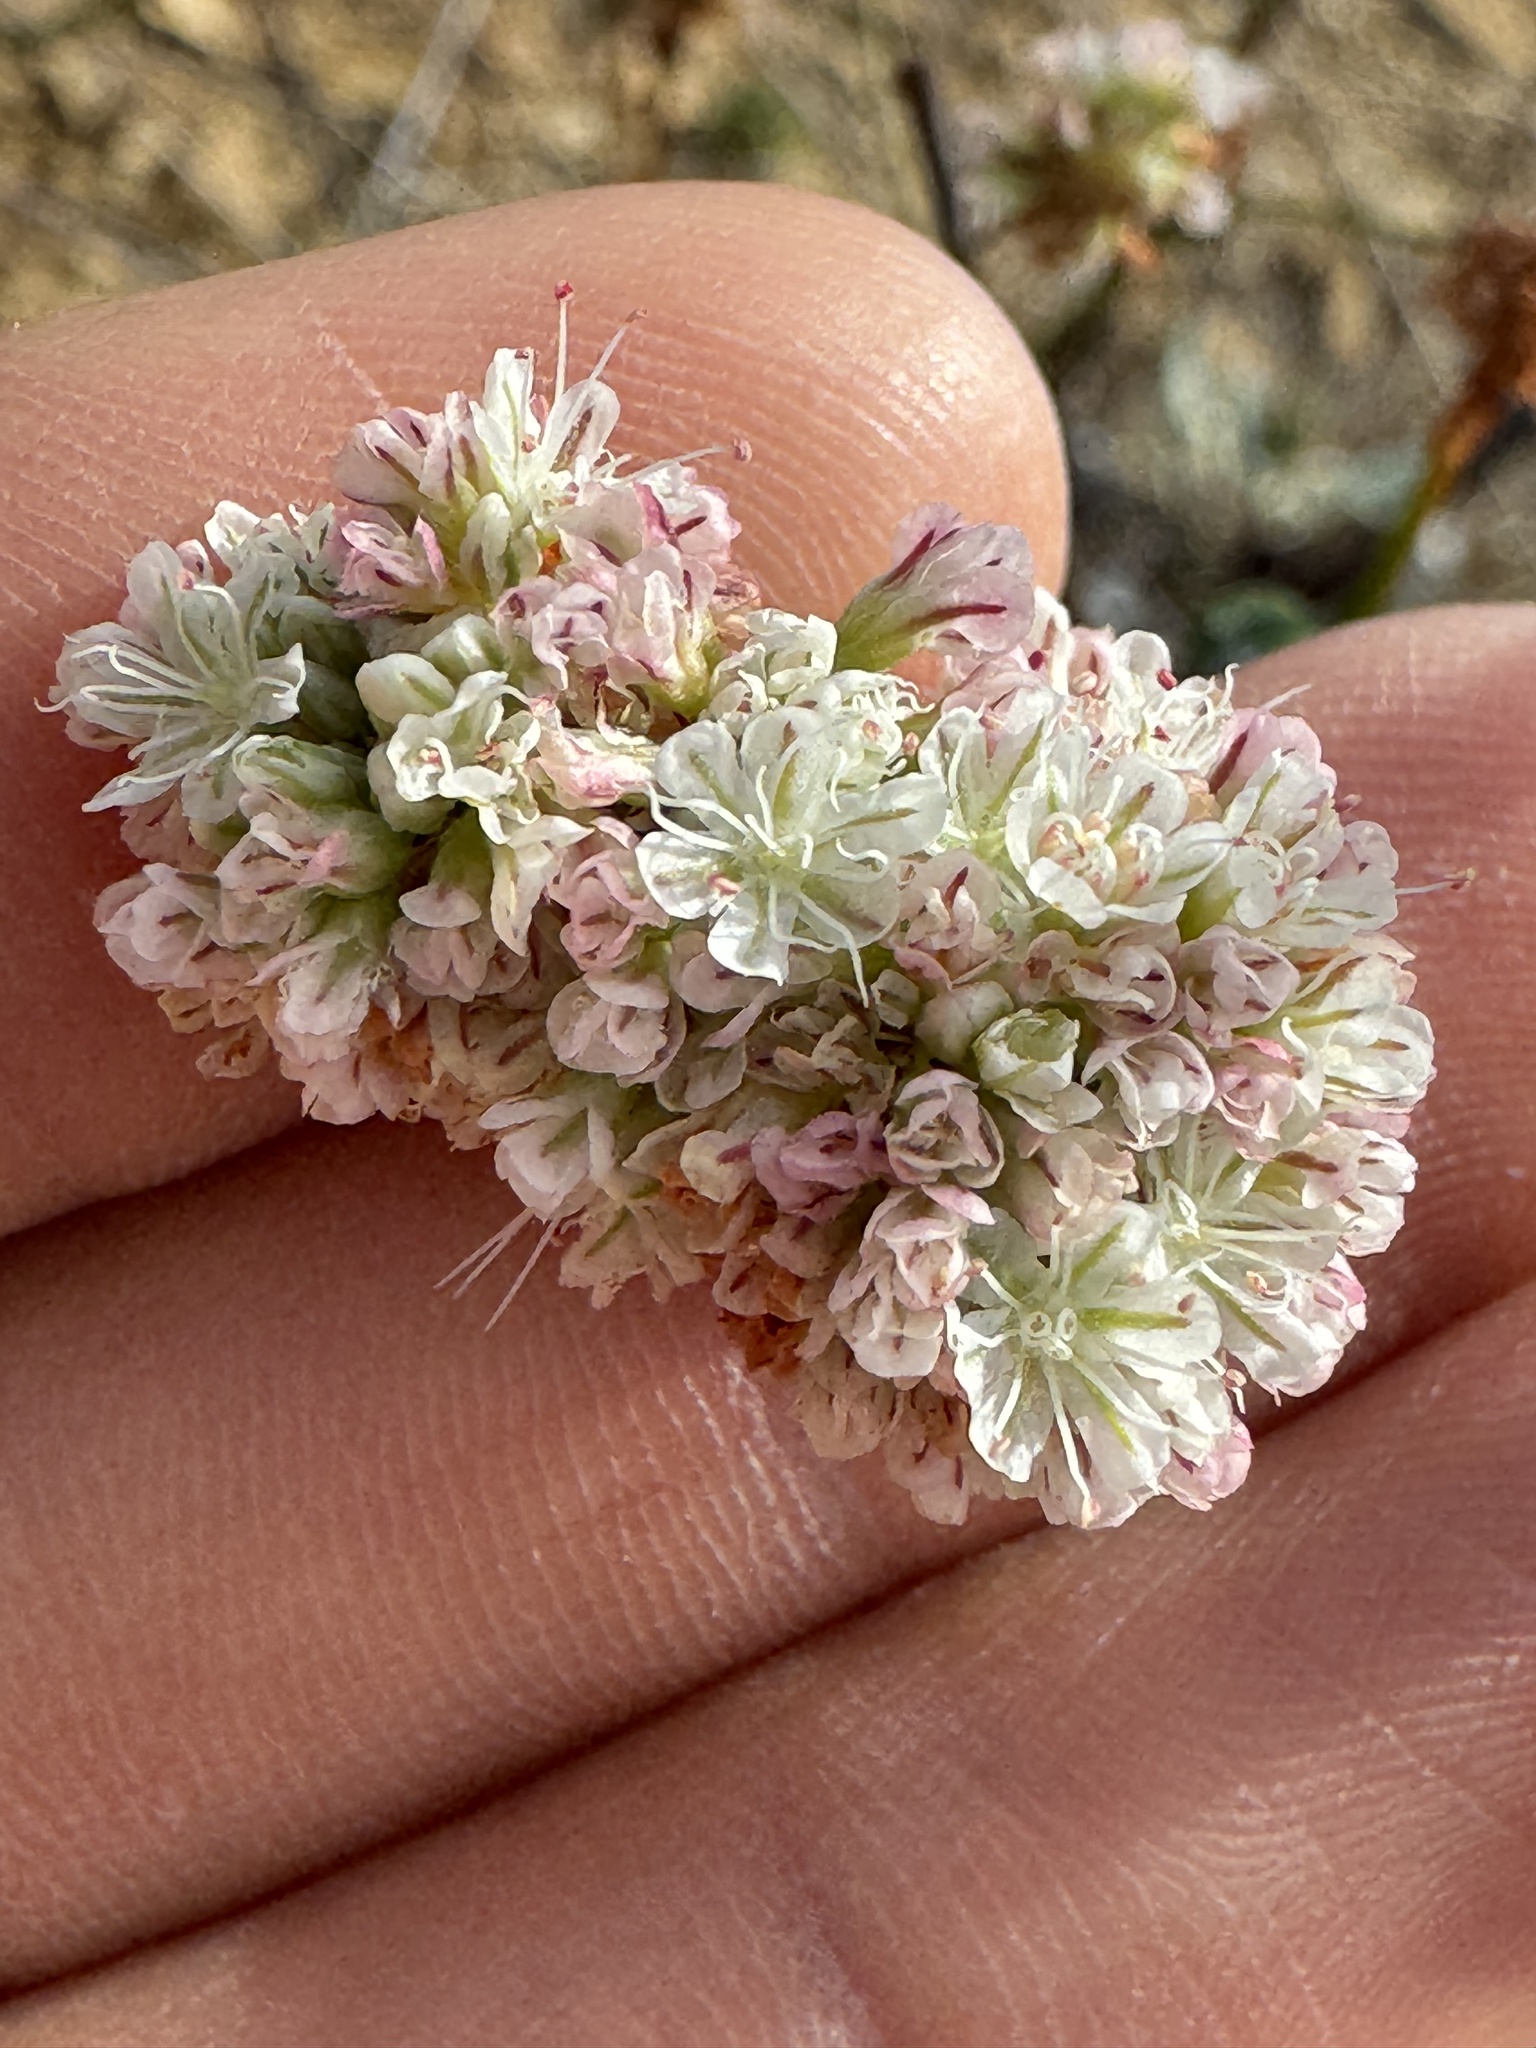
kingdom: Plantae
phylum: Tracheophyta
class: Magnoliopsida
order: Caryophyllales
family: Polygonaceae
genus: Eriogonum
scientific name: Eriogonum grande
